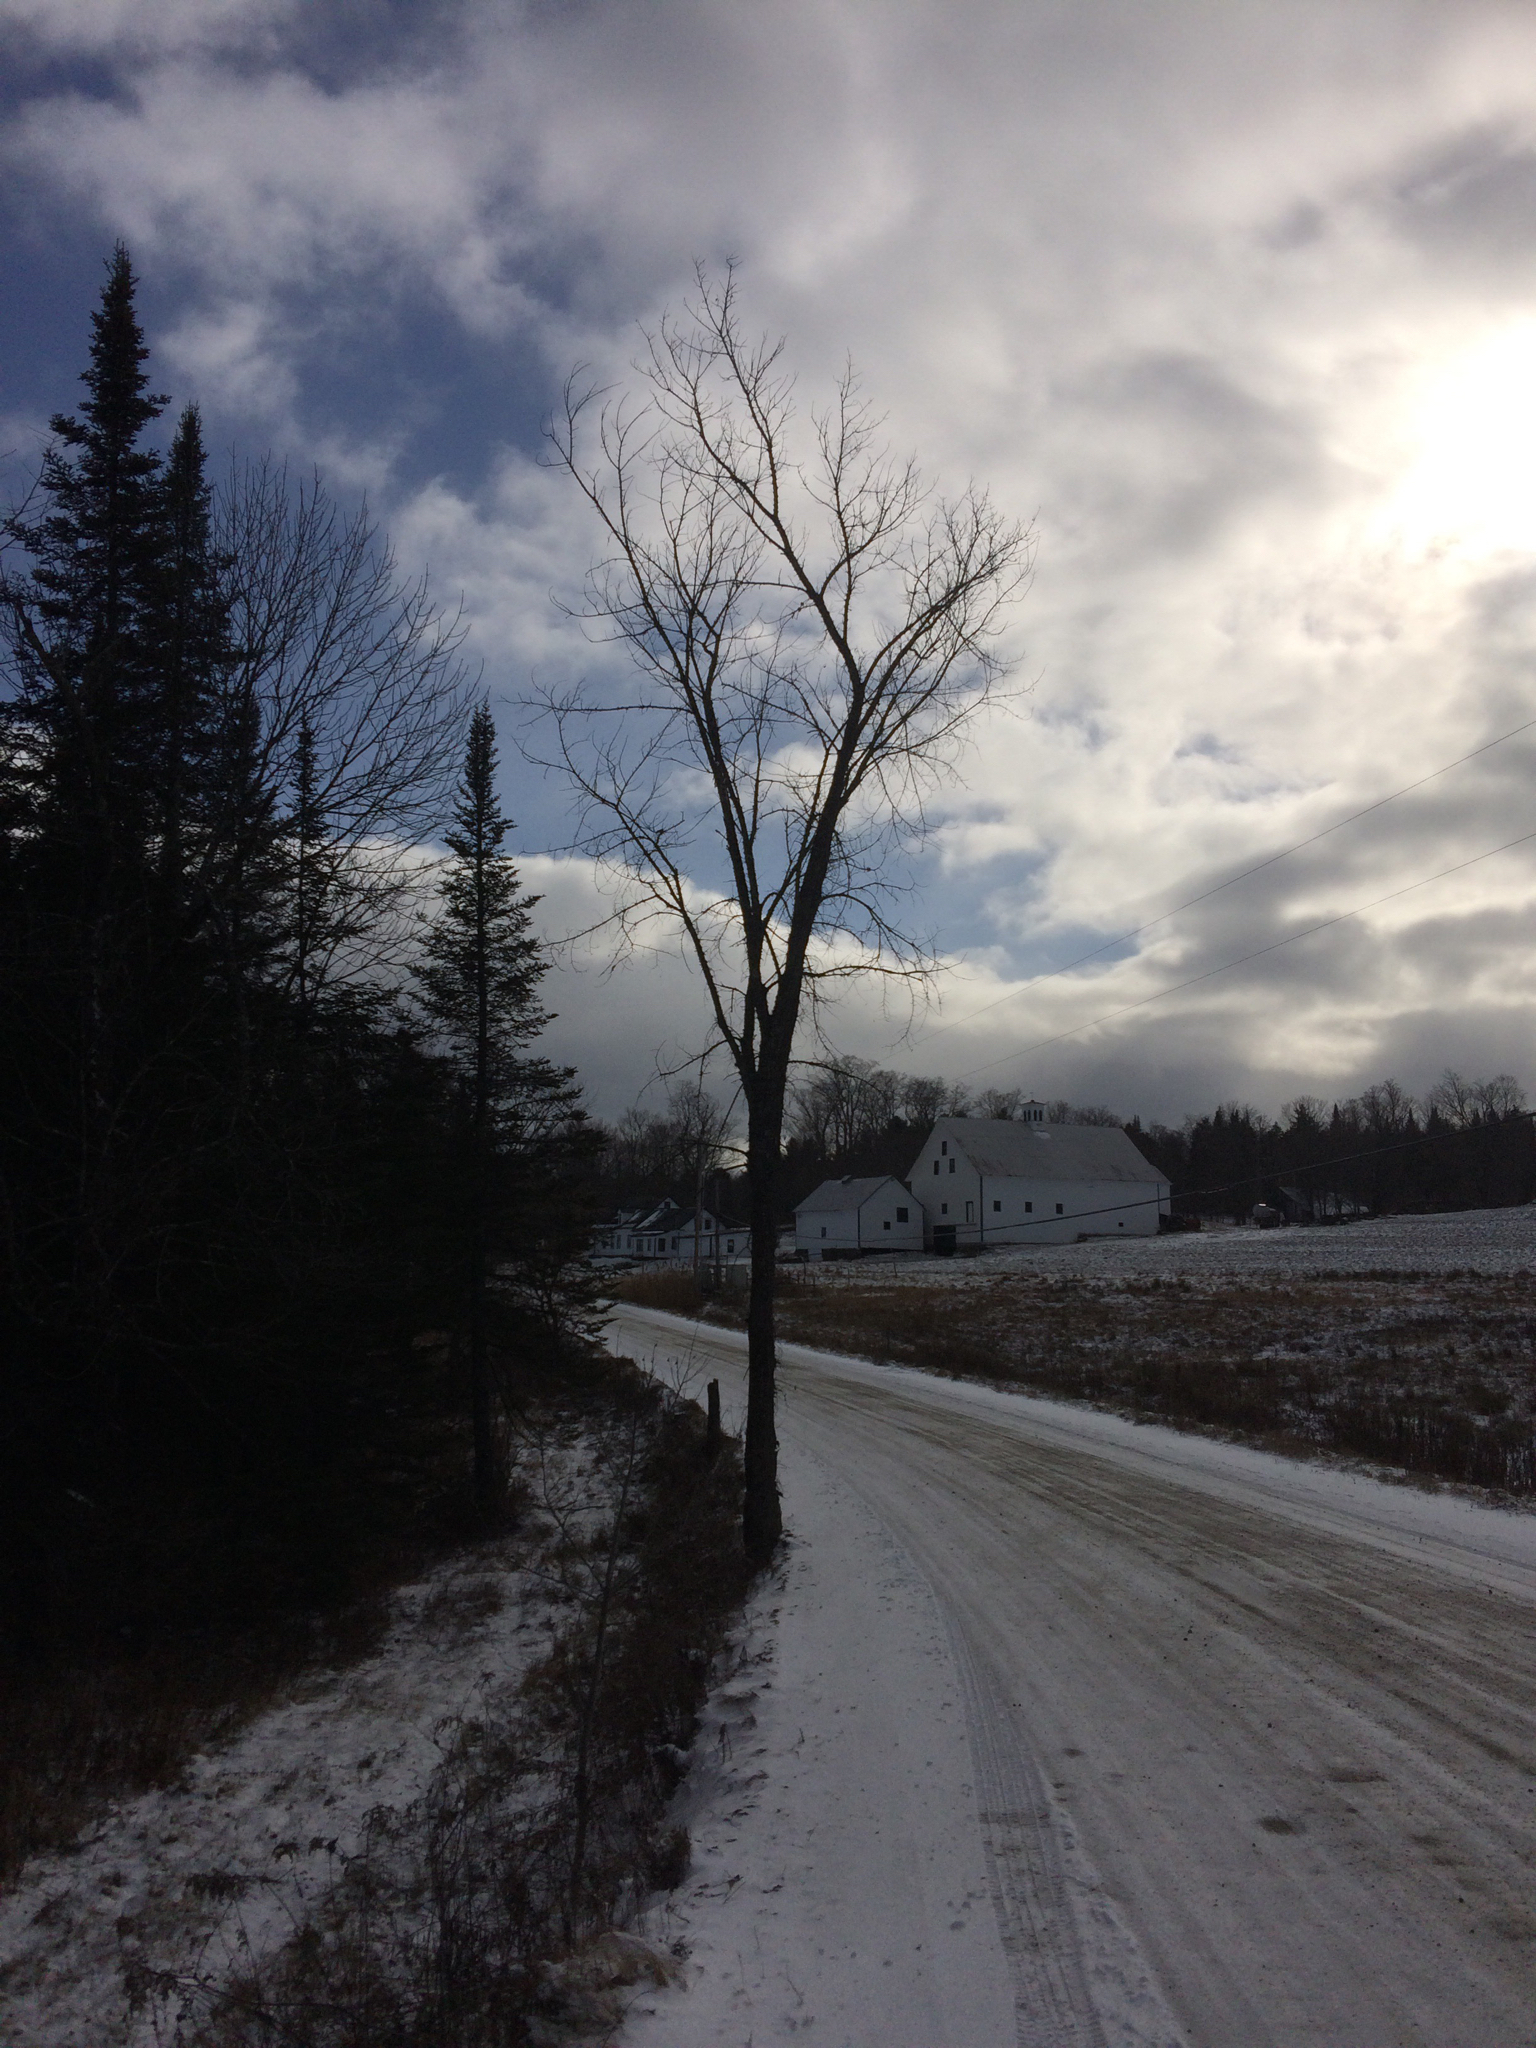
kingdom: Plantae
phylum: Tracheophyta
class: Magnoliopsida
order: Rosales
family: Ulmaceae
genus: Ulmus
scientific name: Ulmus americana
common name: American elm
